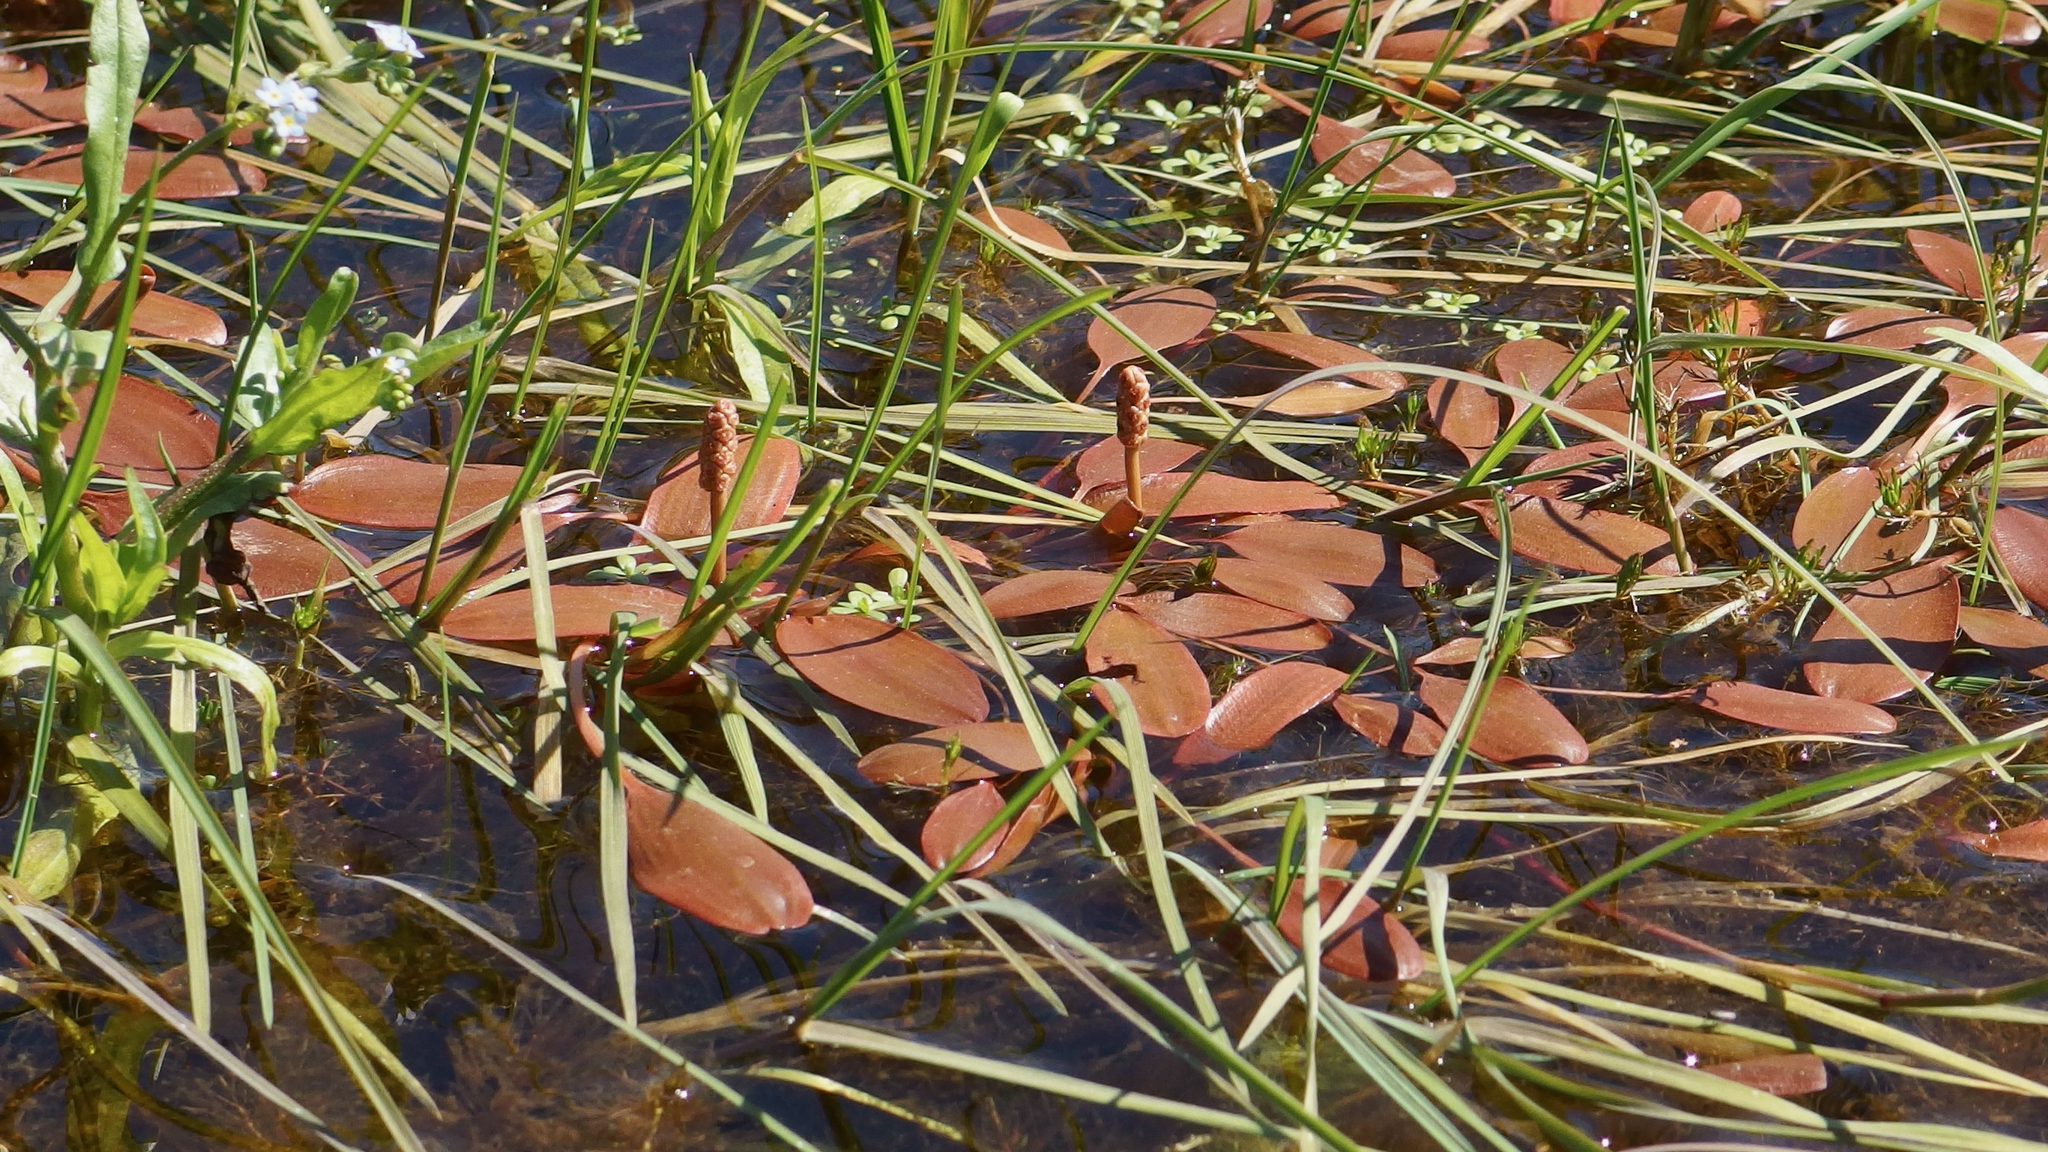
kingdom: Plantae
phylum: Tracheophyta
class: Liliopsida
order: Alismatales
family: Potamogetonaceae
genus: Potamogeton
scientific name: Potamogeton cheesemanii
